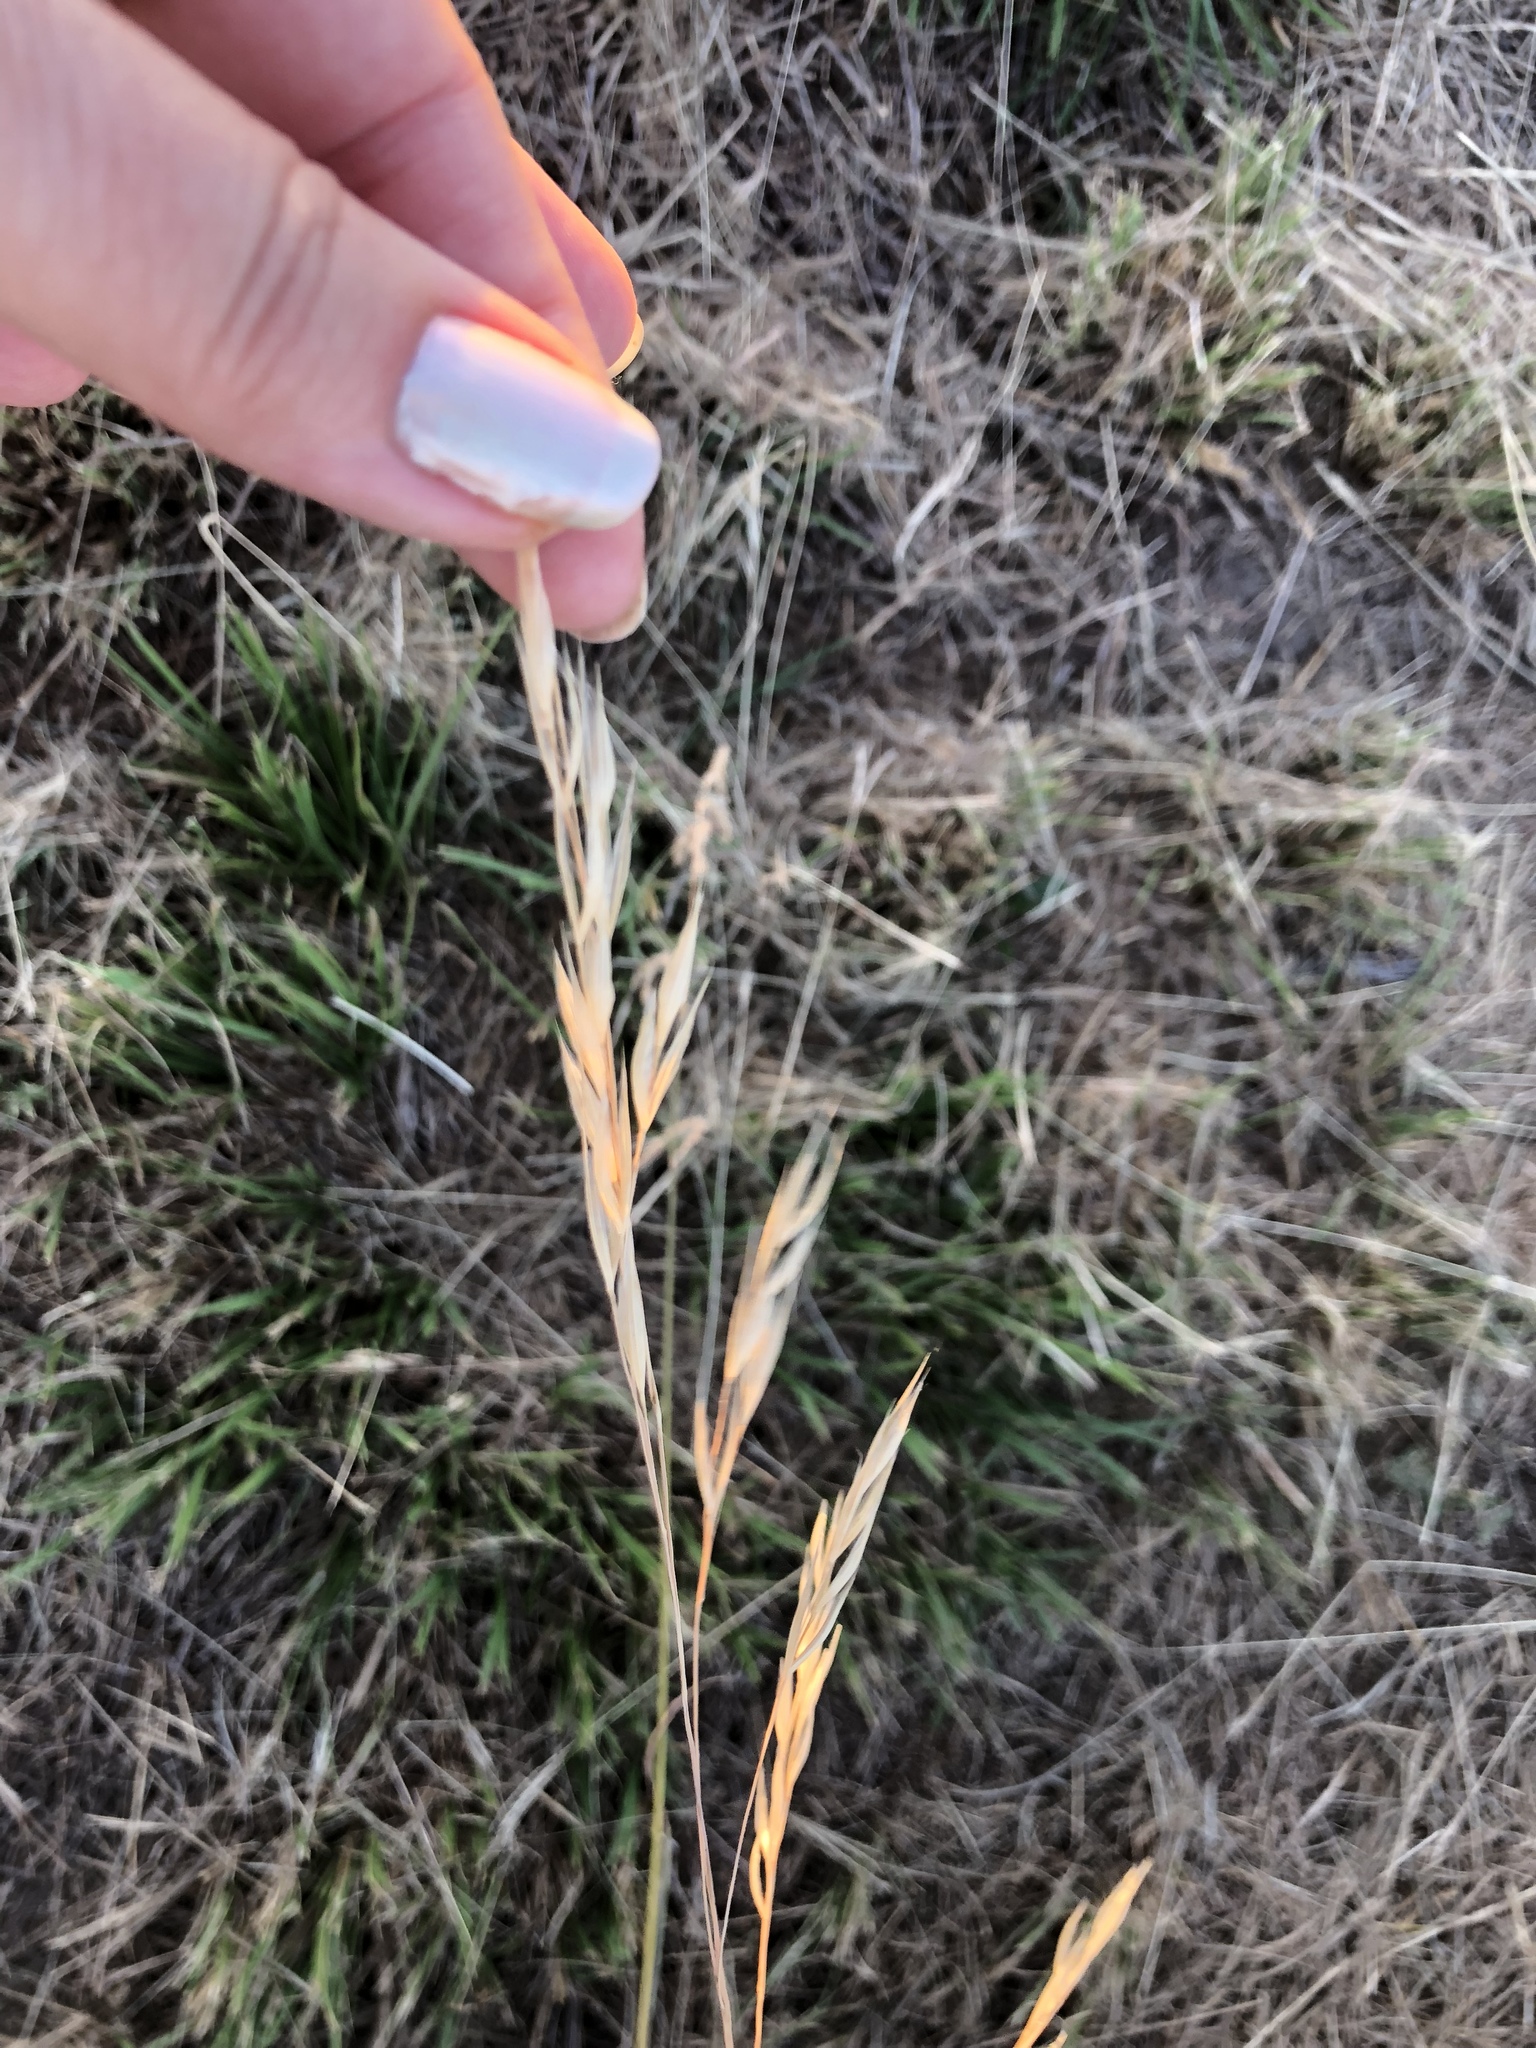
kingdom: Plantae
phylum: Tracheophyta
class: Liliopsida
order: Poales
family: Poaceae
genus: Bromus
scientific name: Bromus catharticus
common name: Rescuegrass
